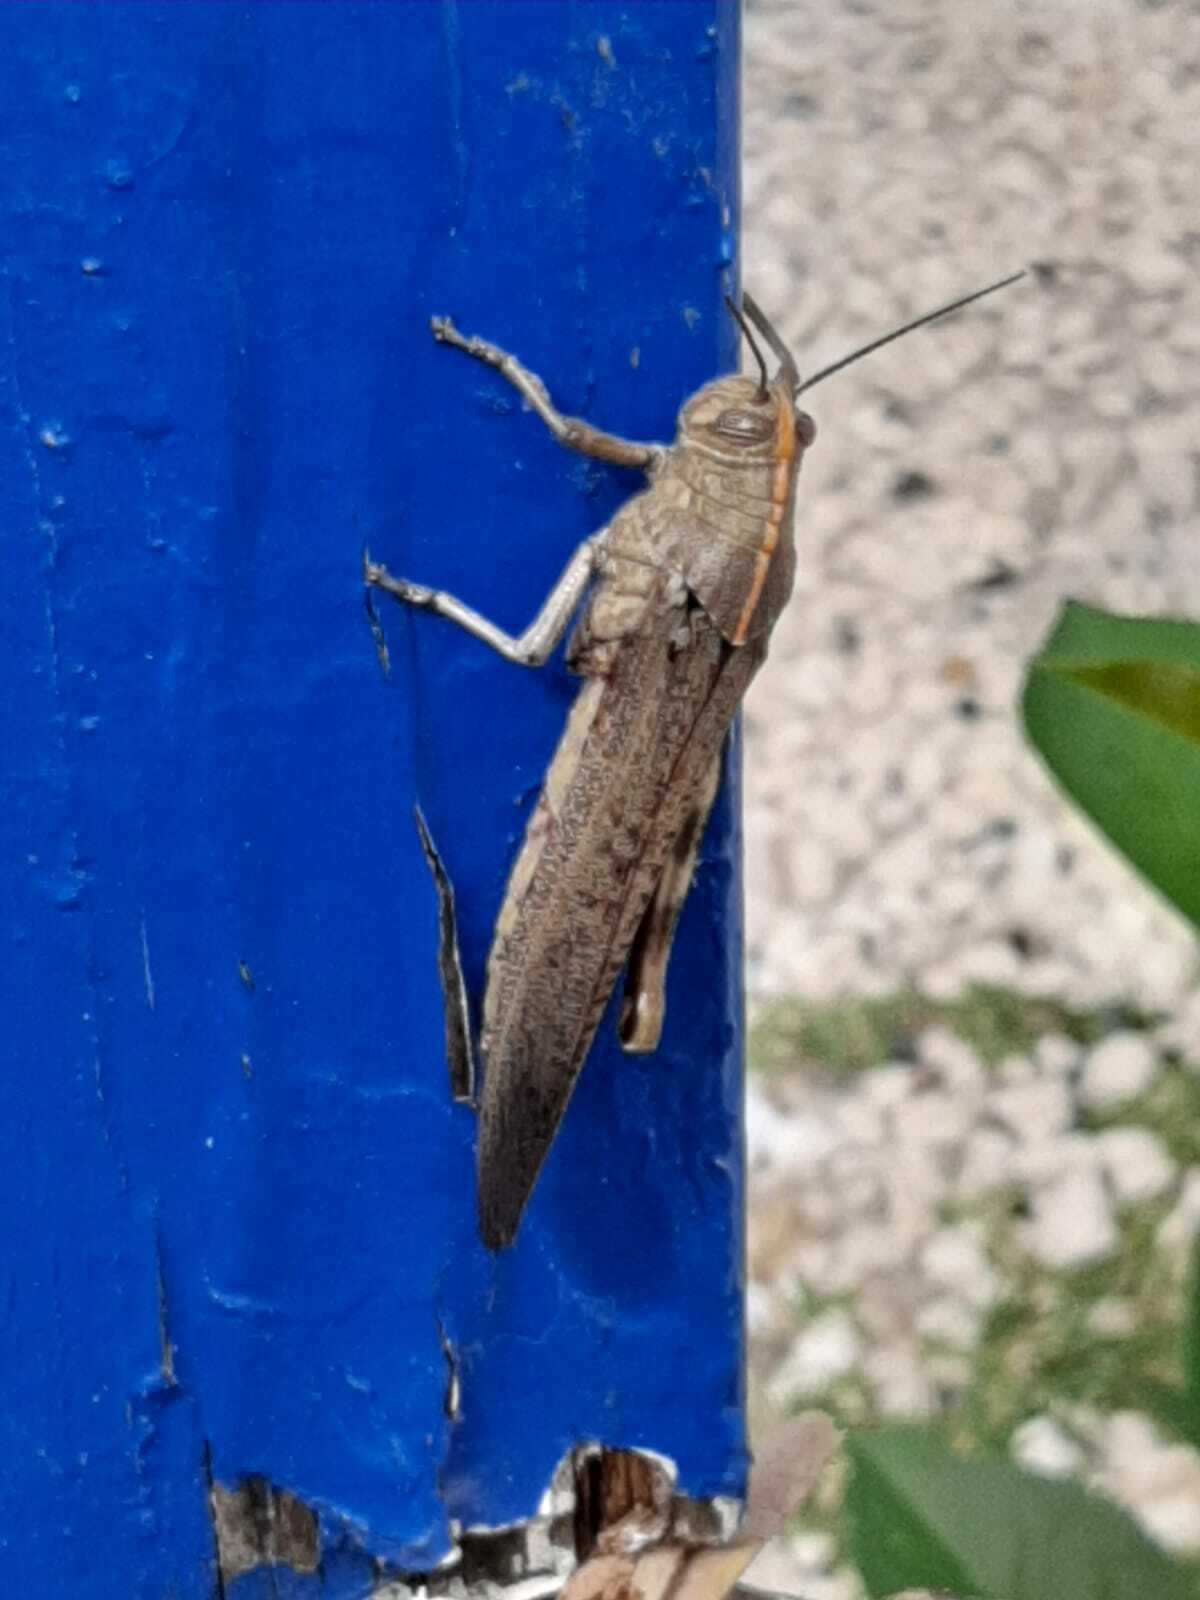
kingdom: Animalia
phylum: Arthropoda
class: Insecta
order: Orthoptera
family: Acrididae
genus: Anacridium
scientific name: Anacridium aegyptium
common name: Egyptian grasshopper
